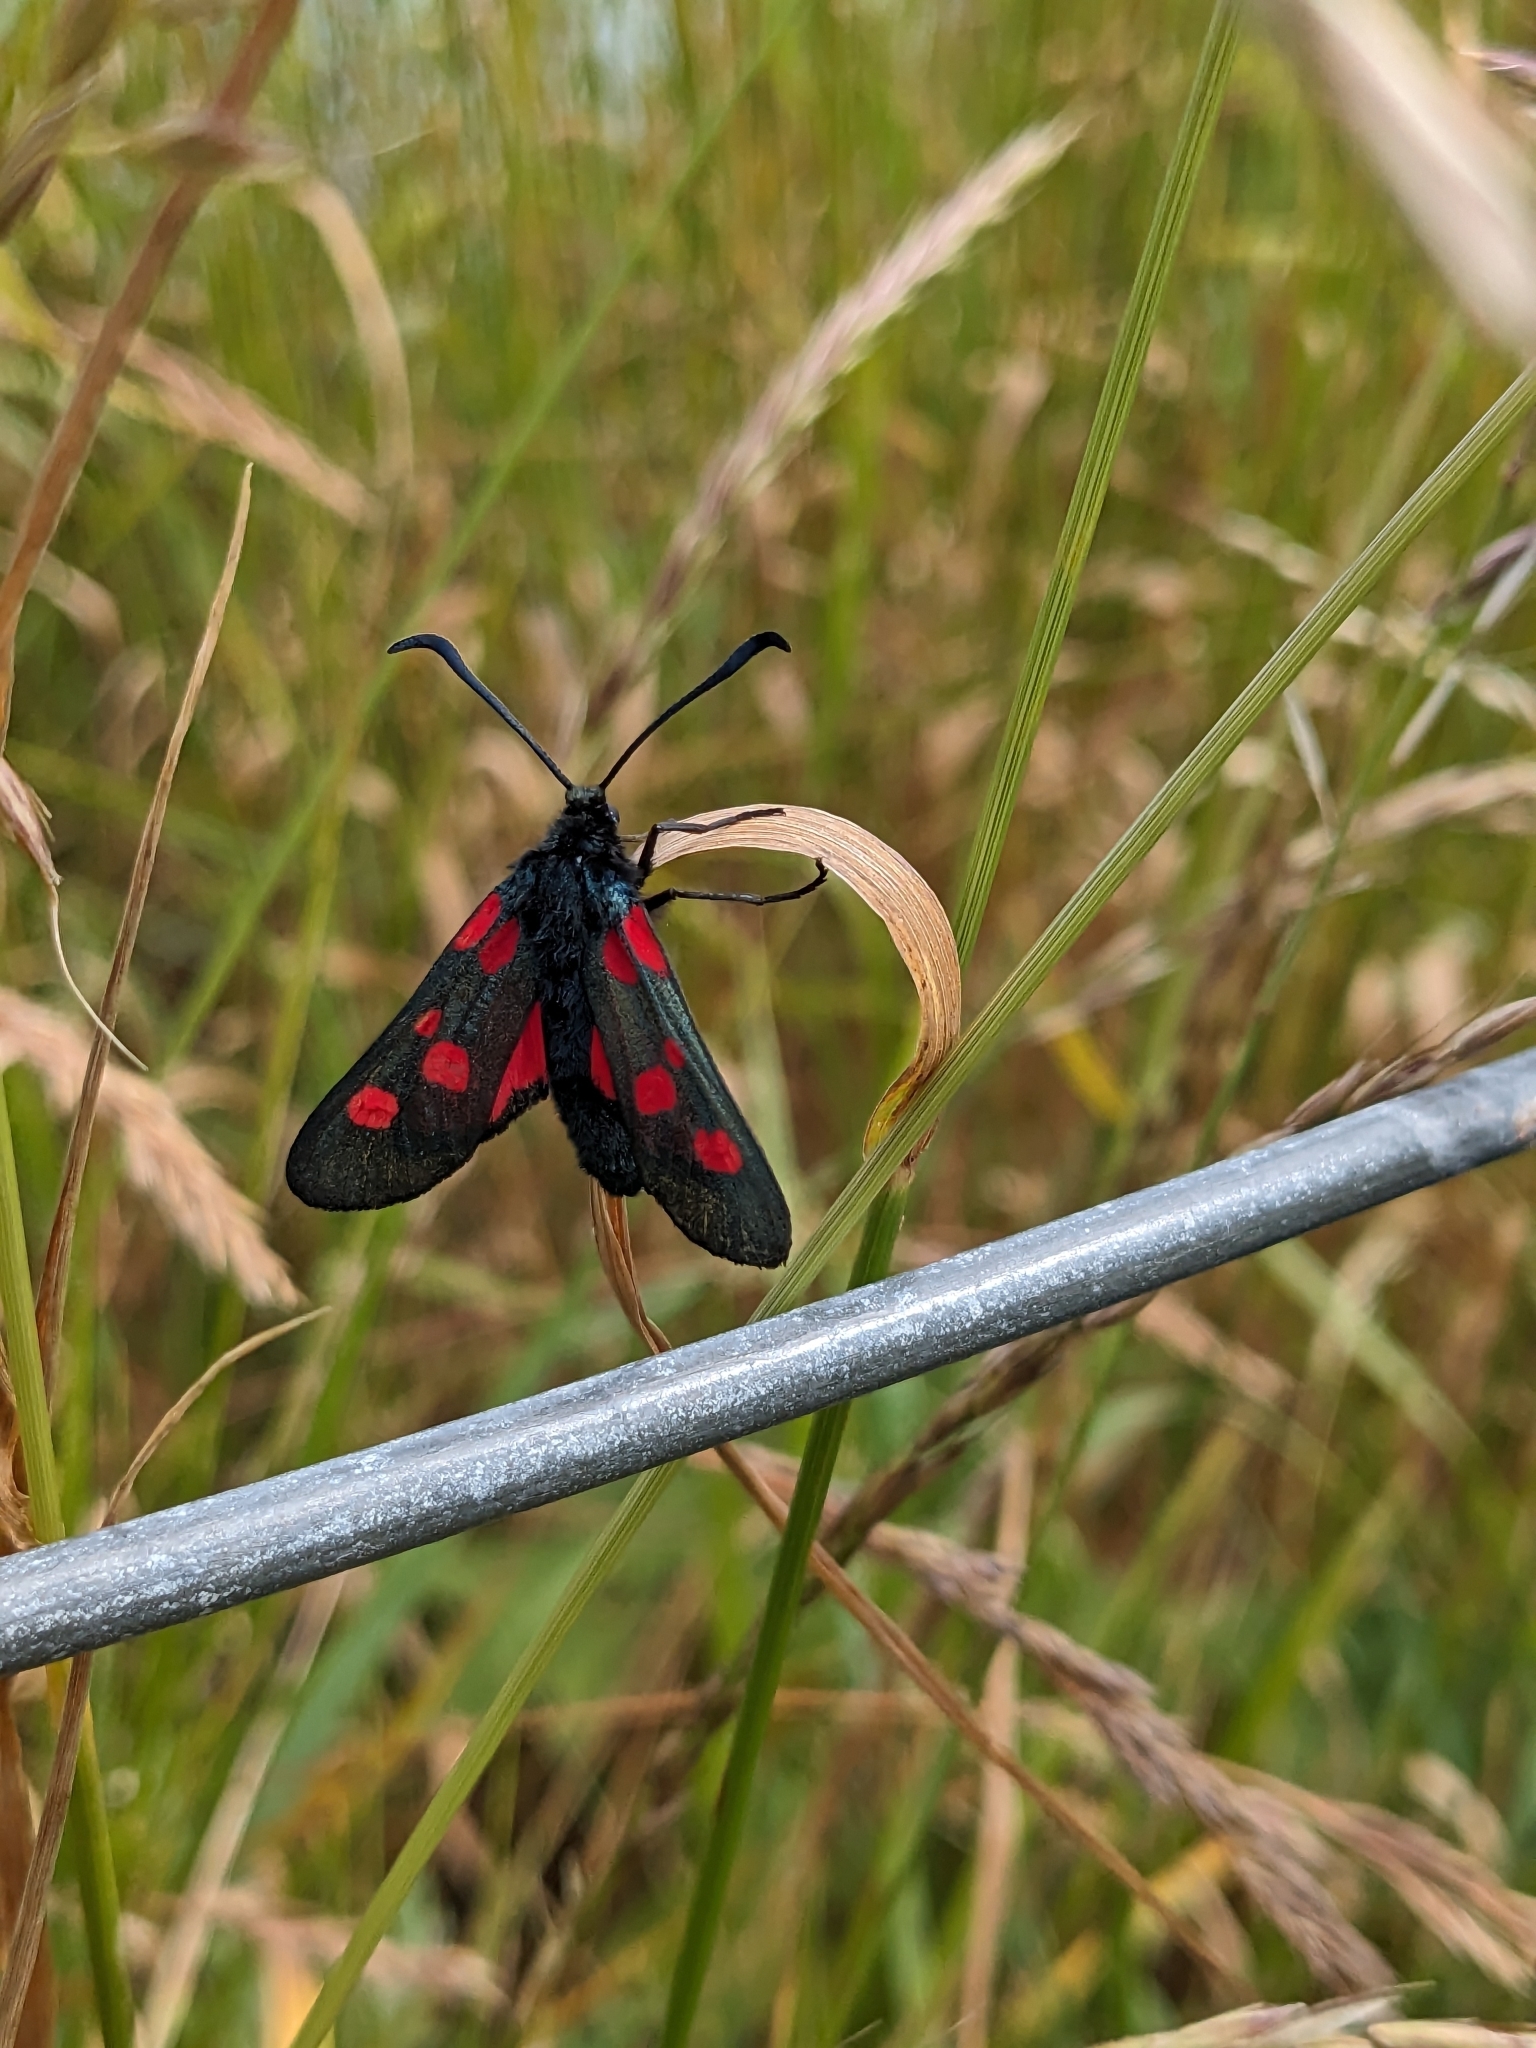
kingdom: Animalia
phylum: Arthropoda
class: Insecta
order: Lepidoptera
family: Zygaenidae
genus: Zygaena
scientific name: Zygaena lonicerae
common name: Narrow-bordered five-spot burnet
